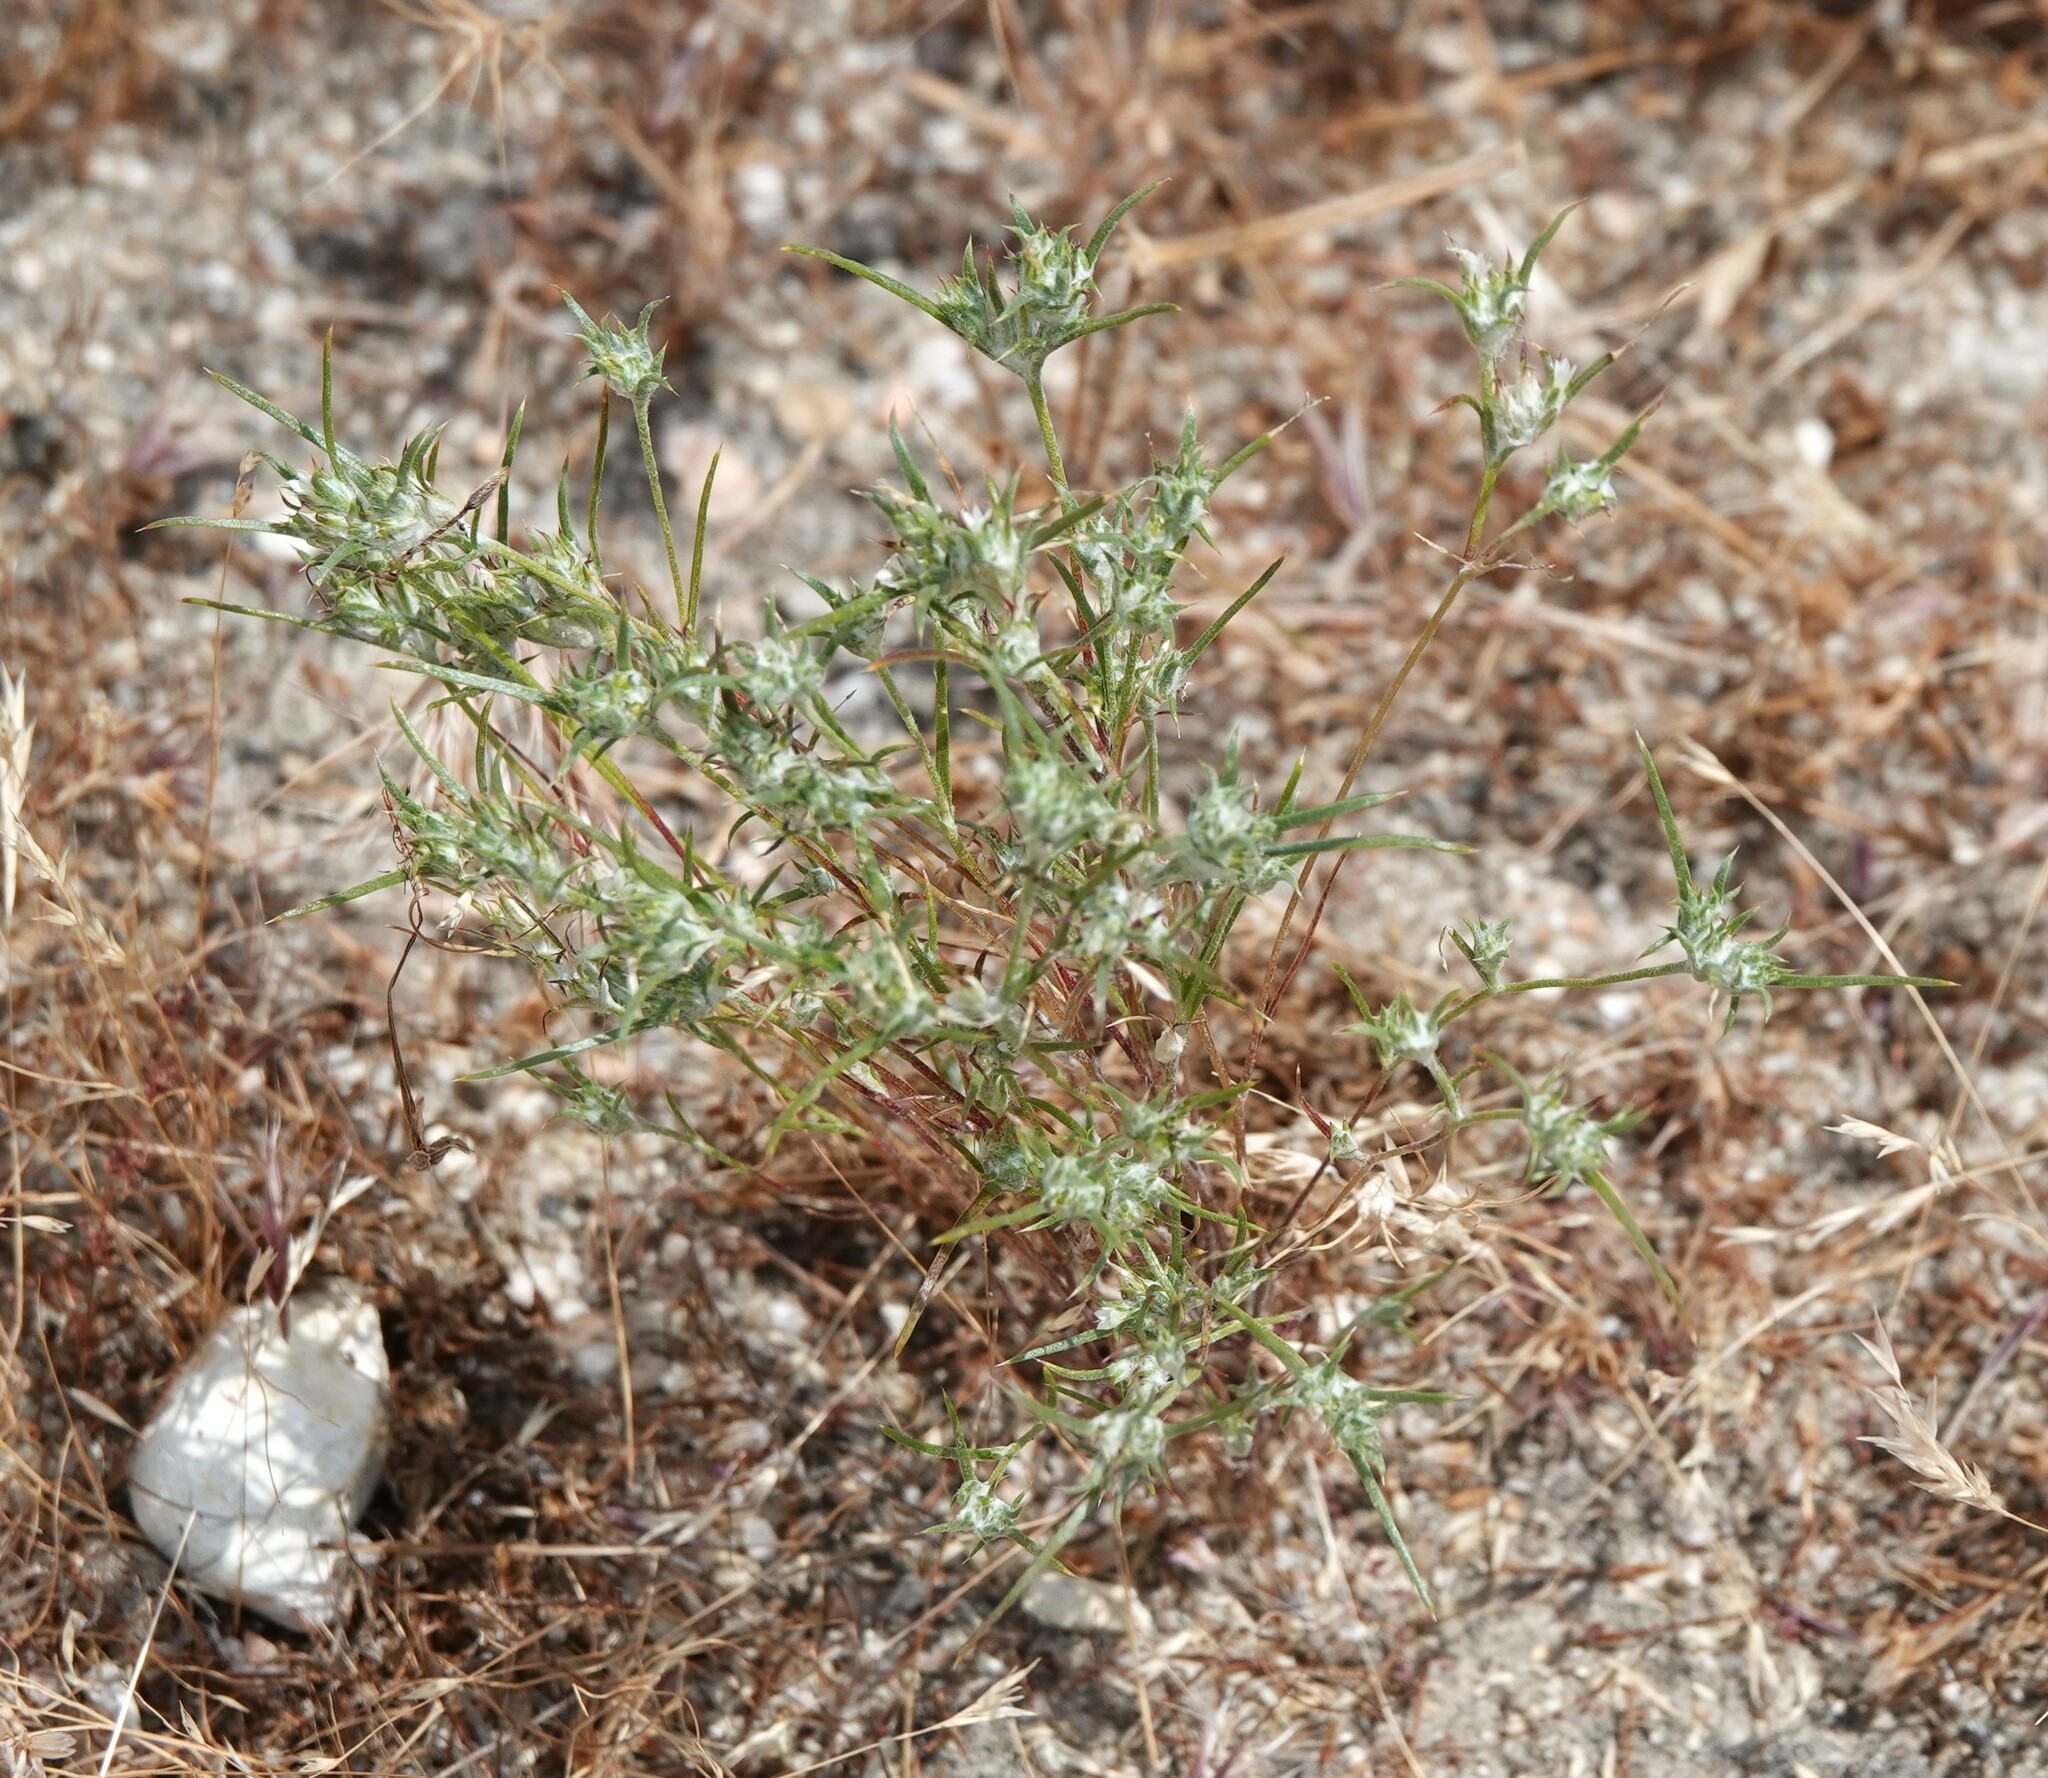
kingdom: Plantae
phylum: Tracheophyta
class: Magnoliopsida
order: Ericales
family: Polemoniaceae
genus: Eriastrum
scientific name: Eriastrum hooveri
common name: Hoover's woolly-star
